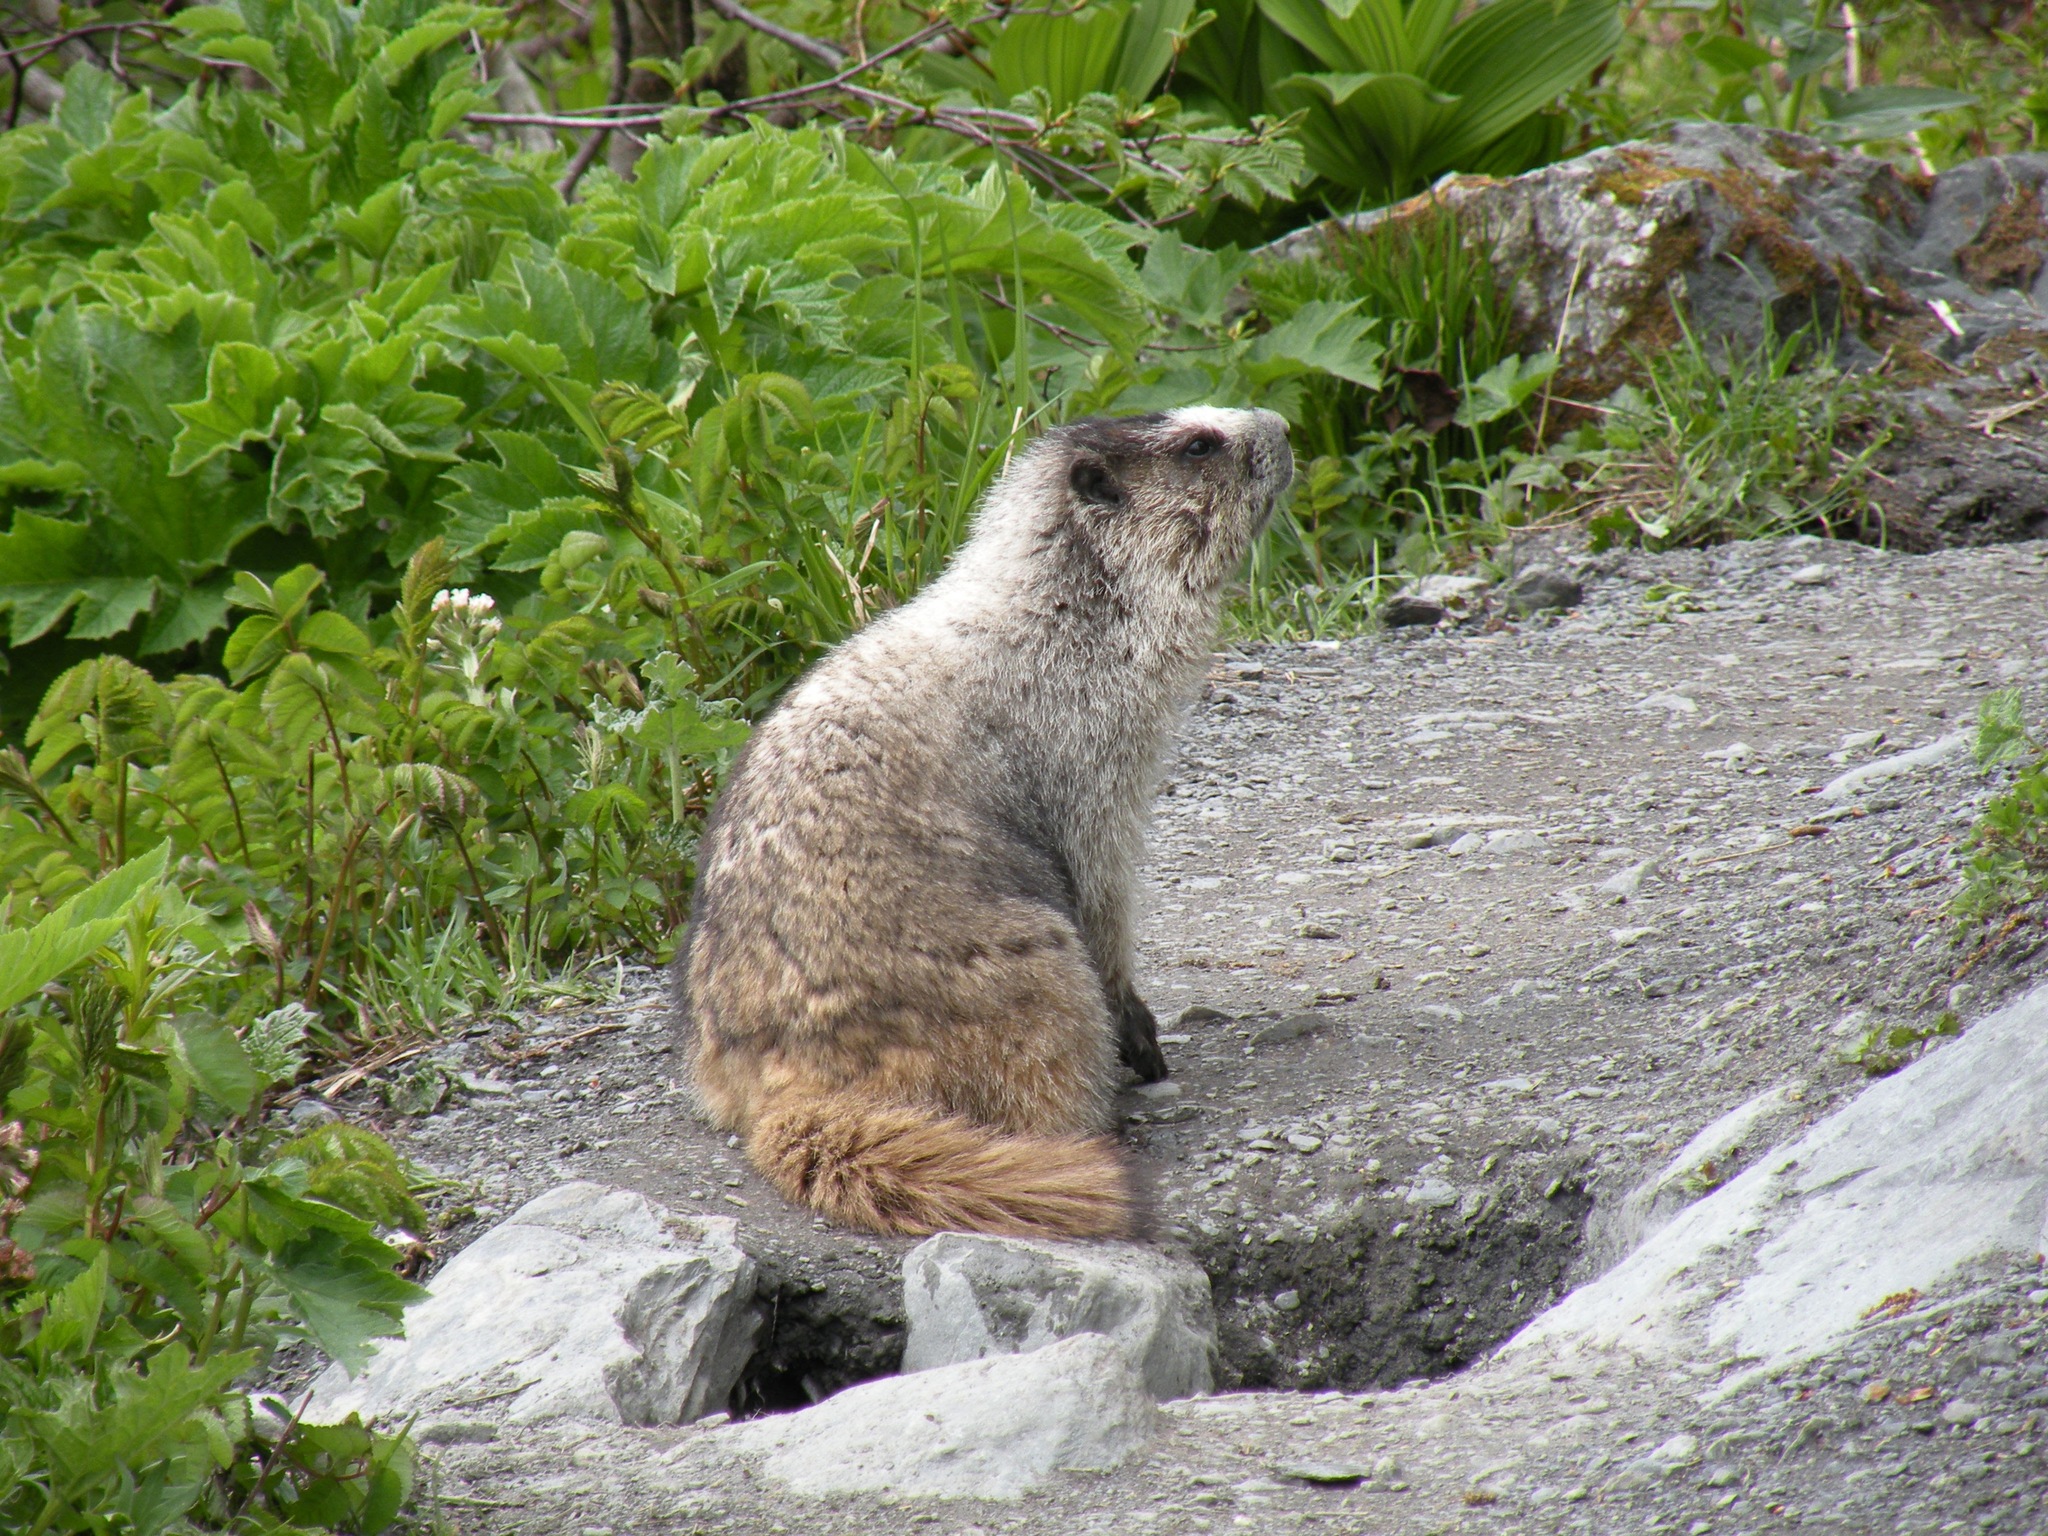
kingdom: Animalia
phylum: Chordata
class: Mammalia
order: Rodentia
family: Sciuridae
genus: Marmota
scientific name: Marmota caligata
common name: Hoary marmot
